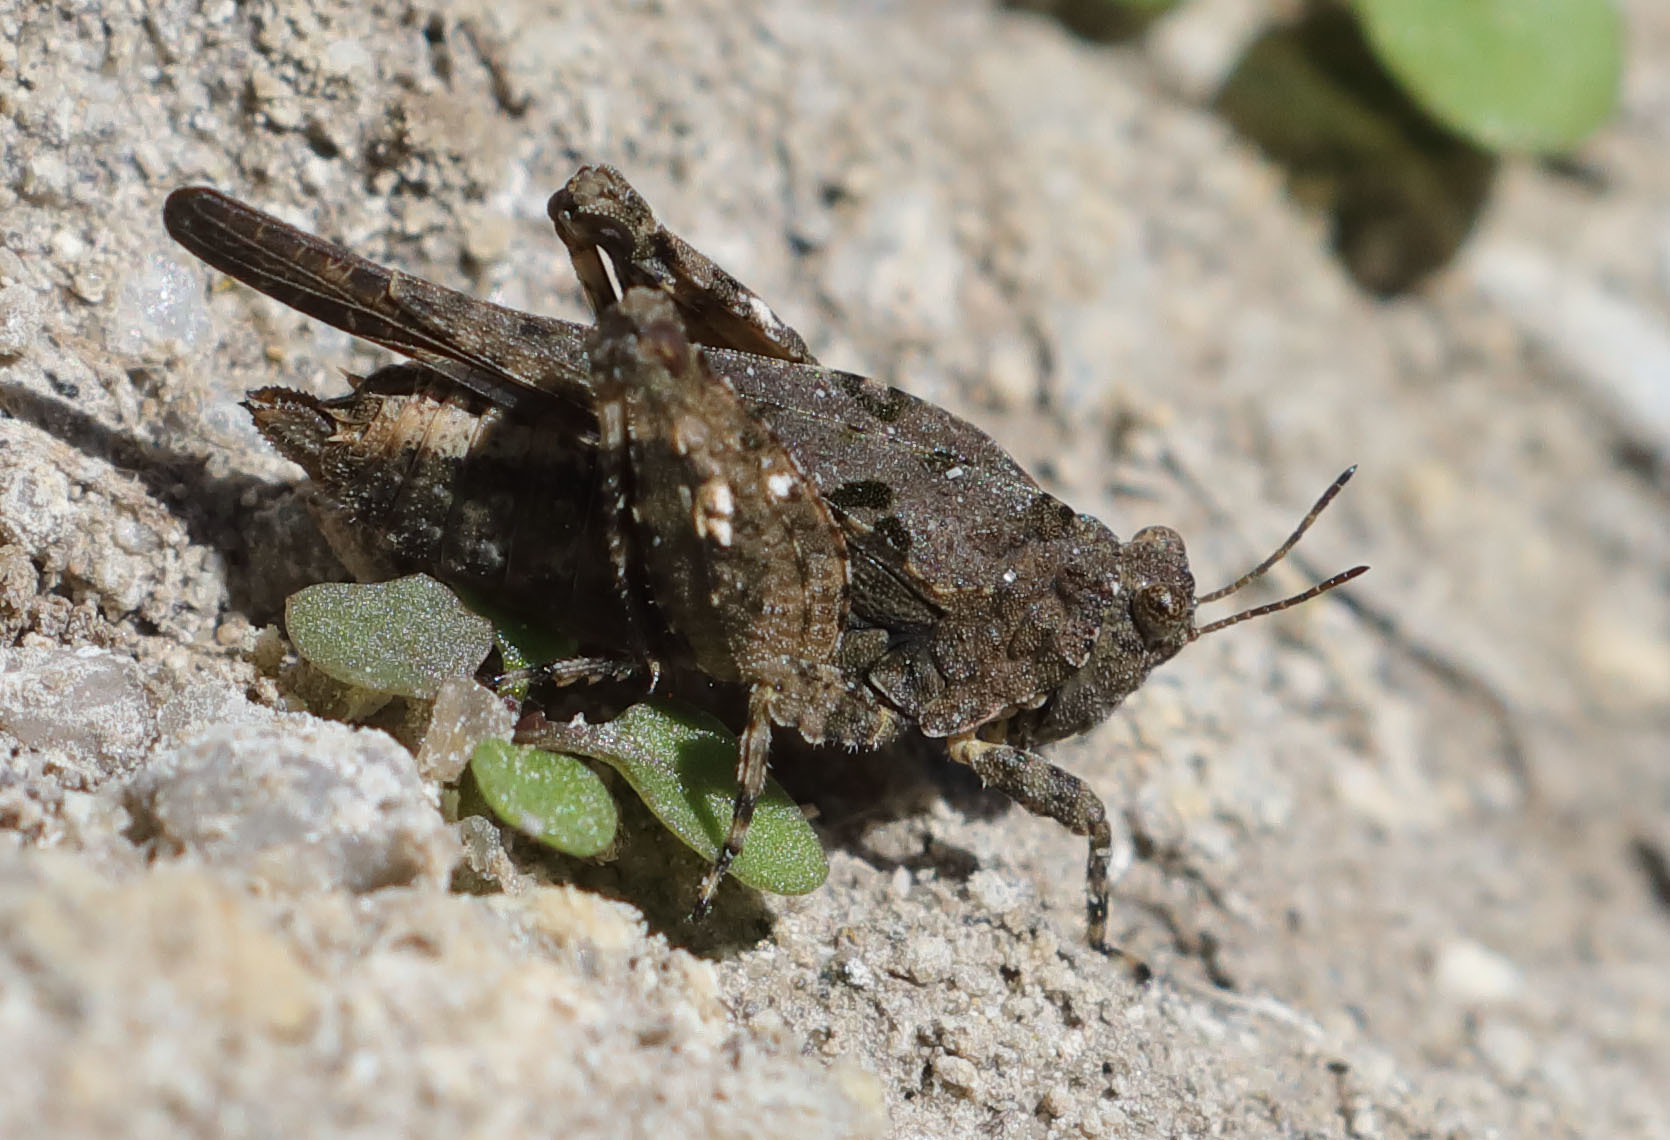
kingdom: Animalia
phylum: Arthropoda
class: Insecta
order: Orthoptera
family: Tetrigidae
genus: Paratettix
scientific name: Paratettix mexicanus
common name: Mexican pygmy grasshopper
